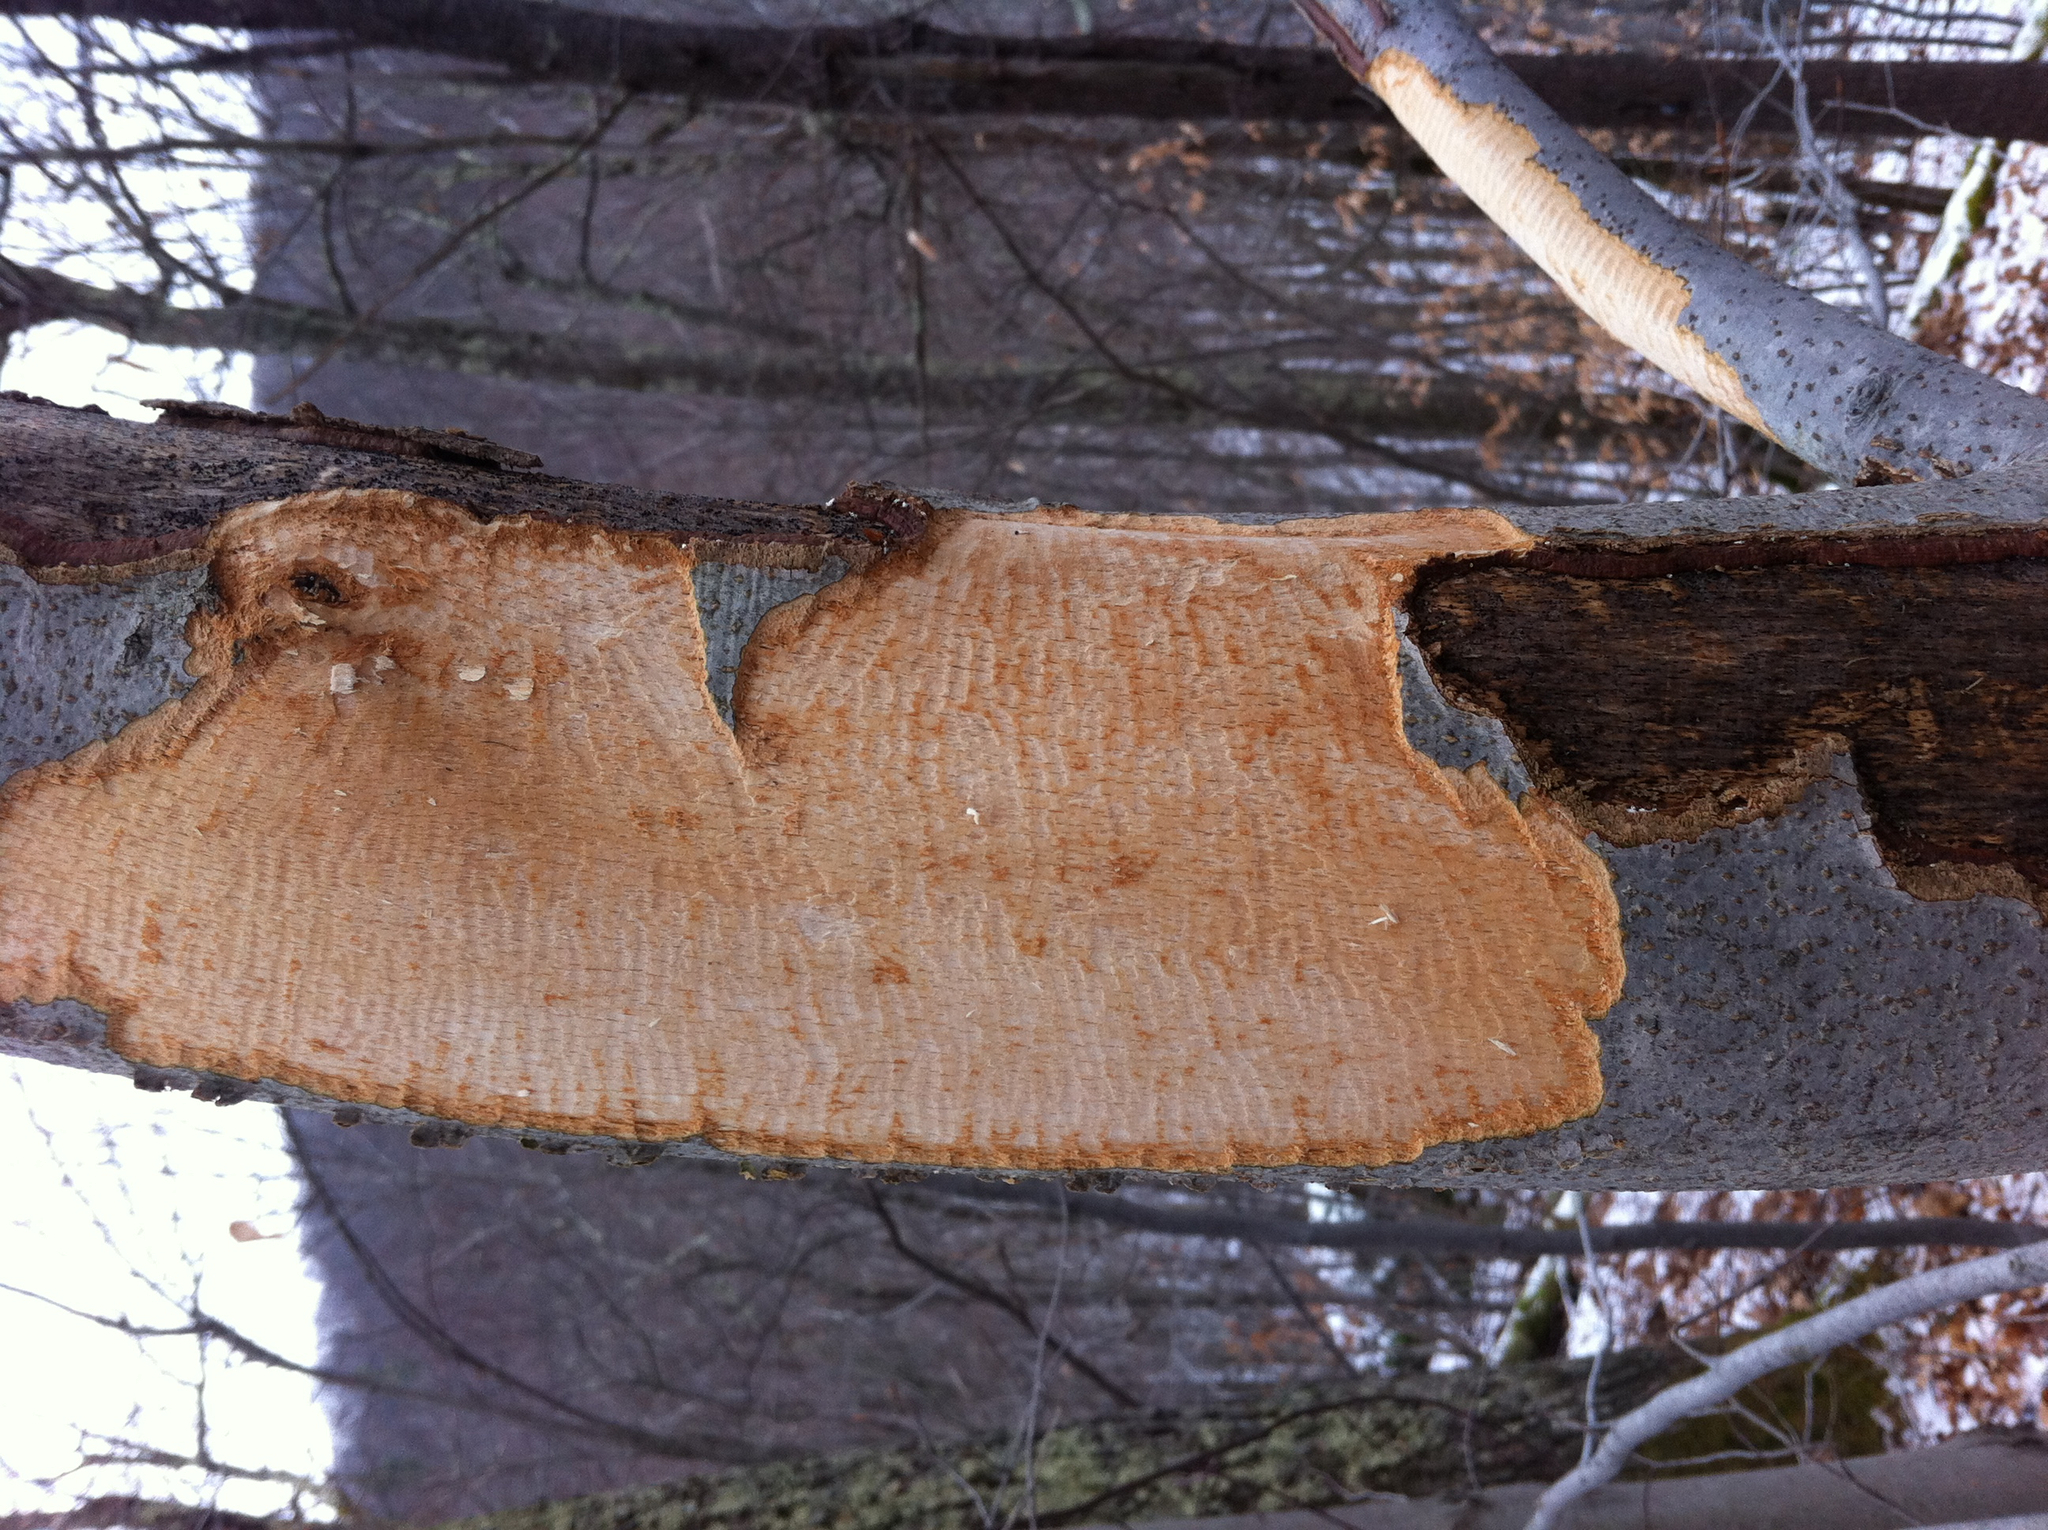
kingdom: Animalia
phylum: Chordata
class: Mammalia
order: Rodentia
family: Erethizontidae
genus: Erethizon
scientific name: Erethizon dorsatus
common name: North american porcupine
